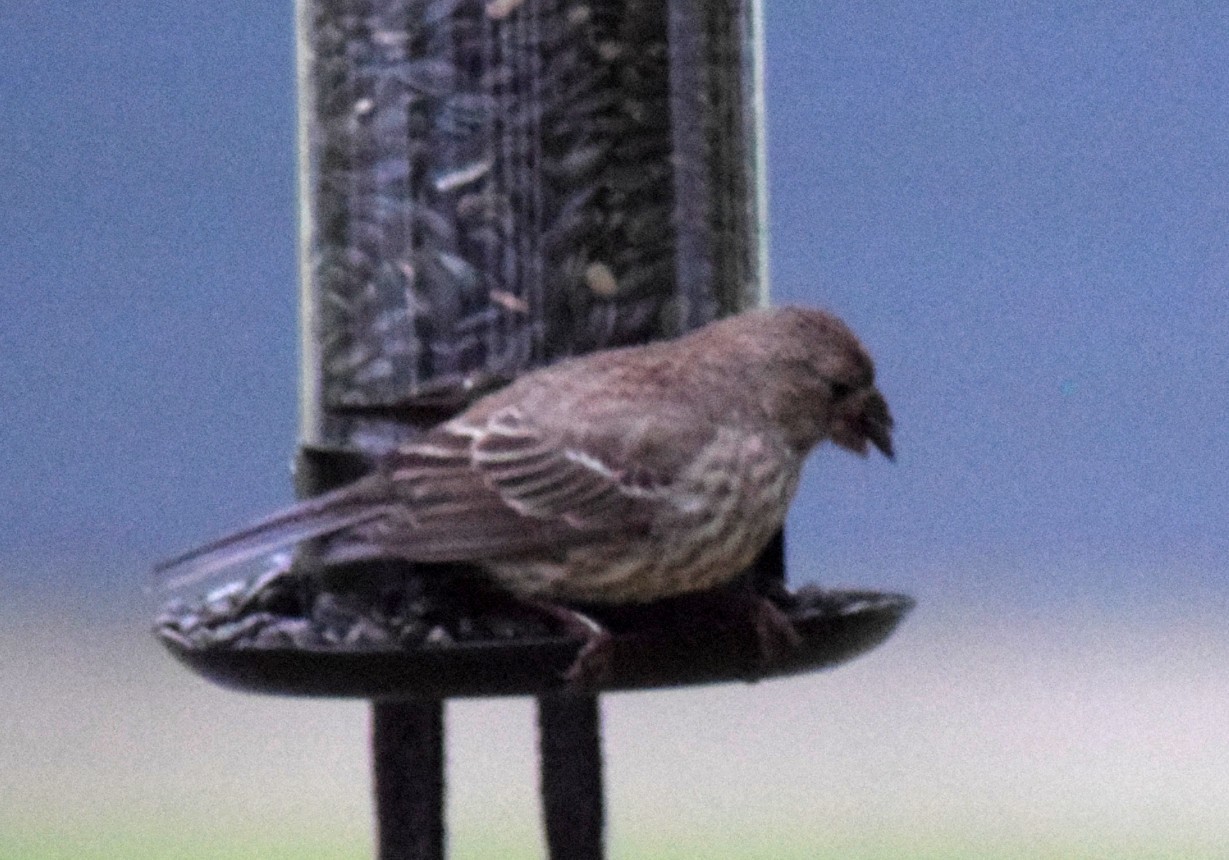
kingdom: Animalia
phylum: Chordata
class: Aves
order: Passeriformes
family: Fringillidae
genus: Haemorhous
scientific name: Haemorhous mexicanus
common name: House finch
